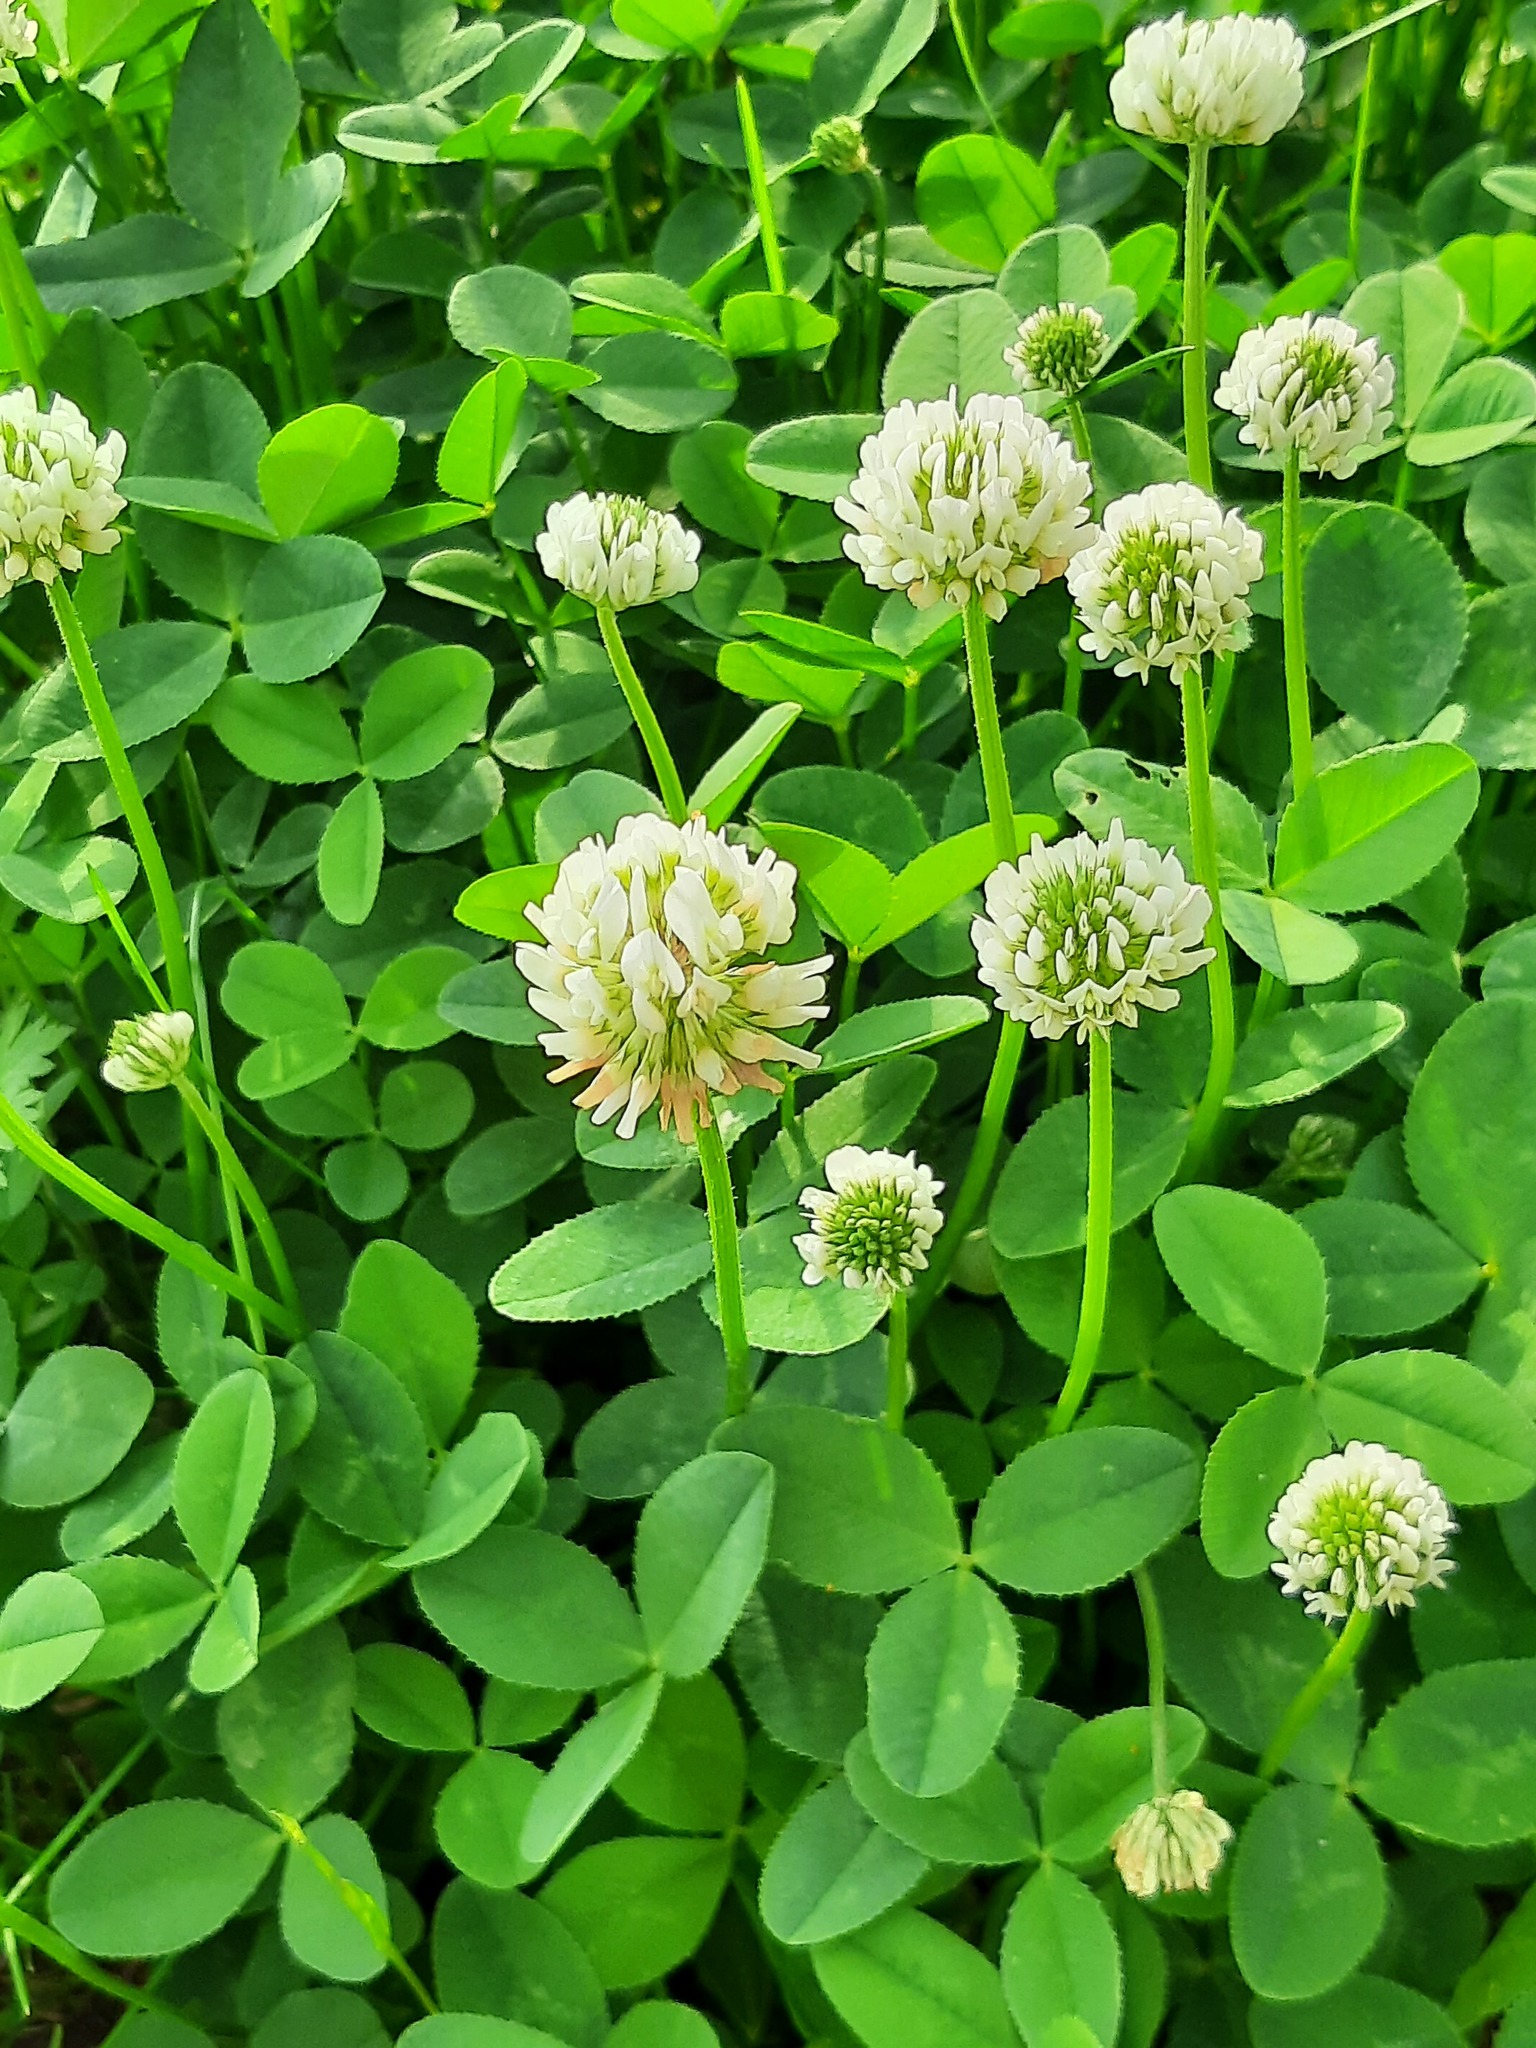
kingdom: Plantae
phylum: Tracheophyta
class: Magnoliopsida
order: Fabales
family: Fabaceae
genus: Trifolium
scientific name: Trifolium repens
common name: White clover
